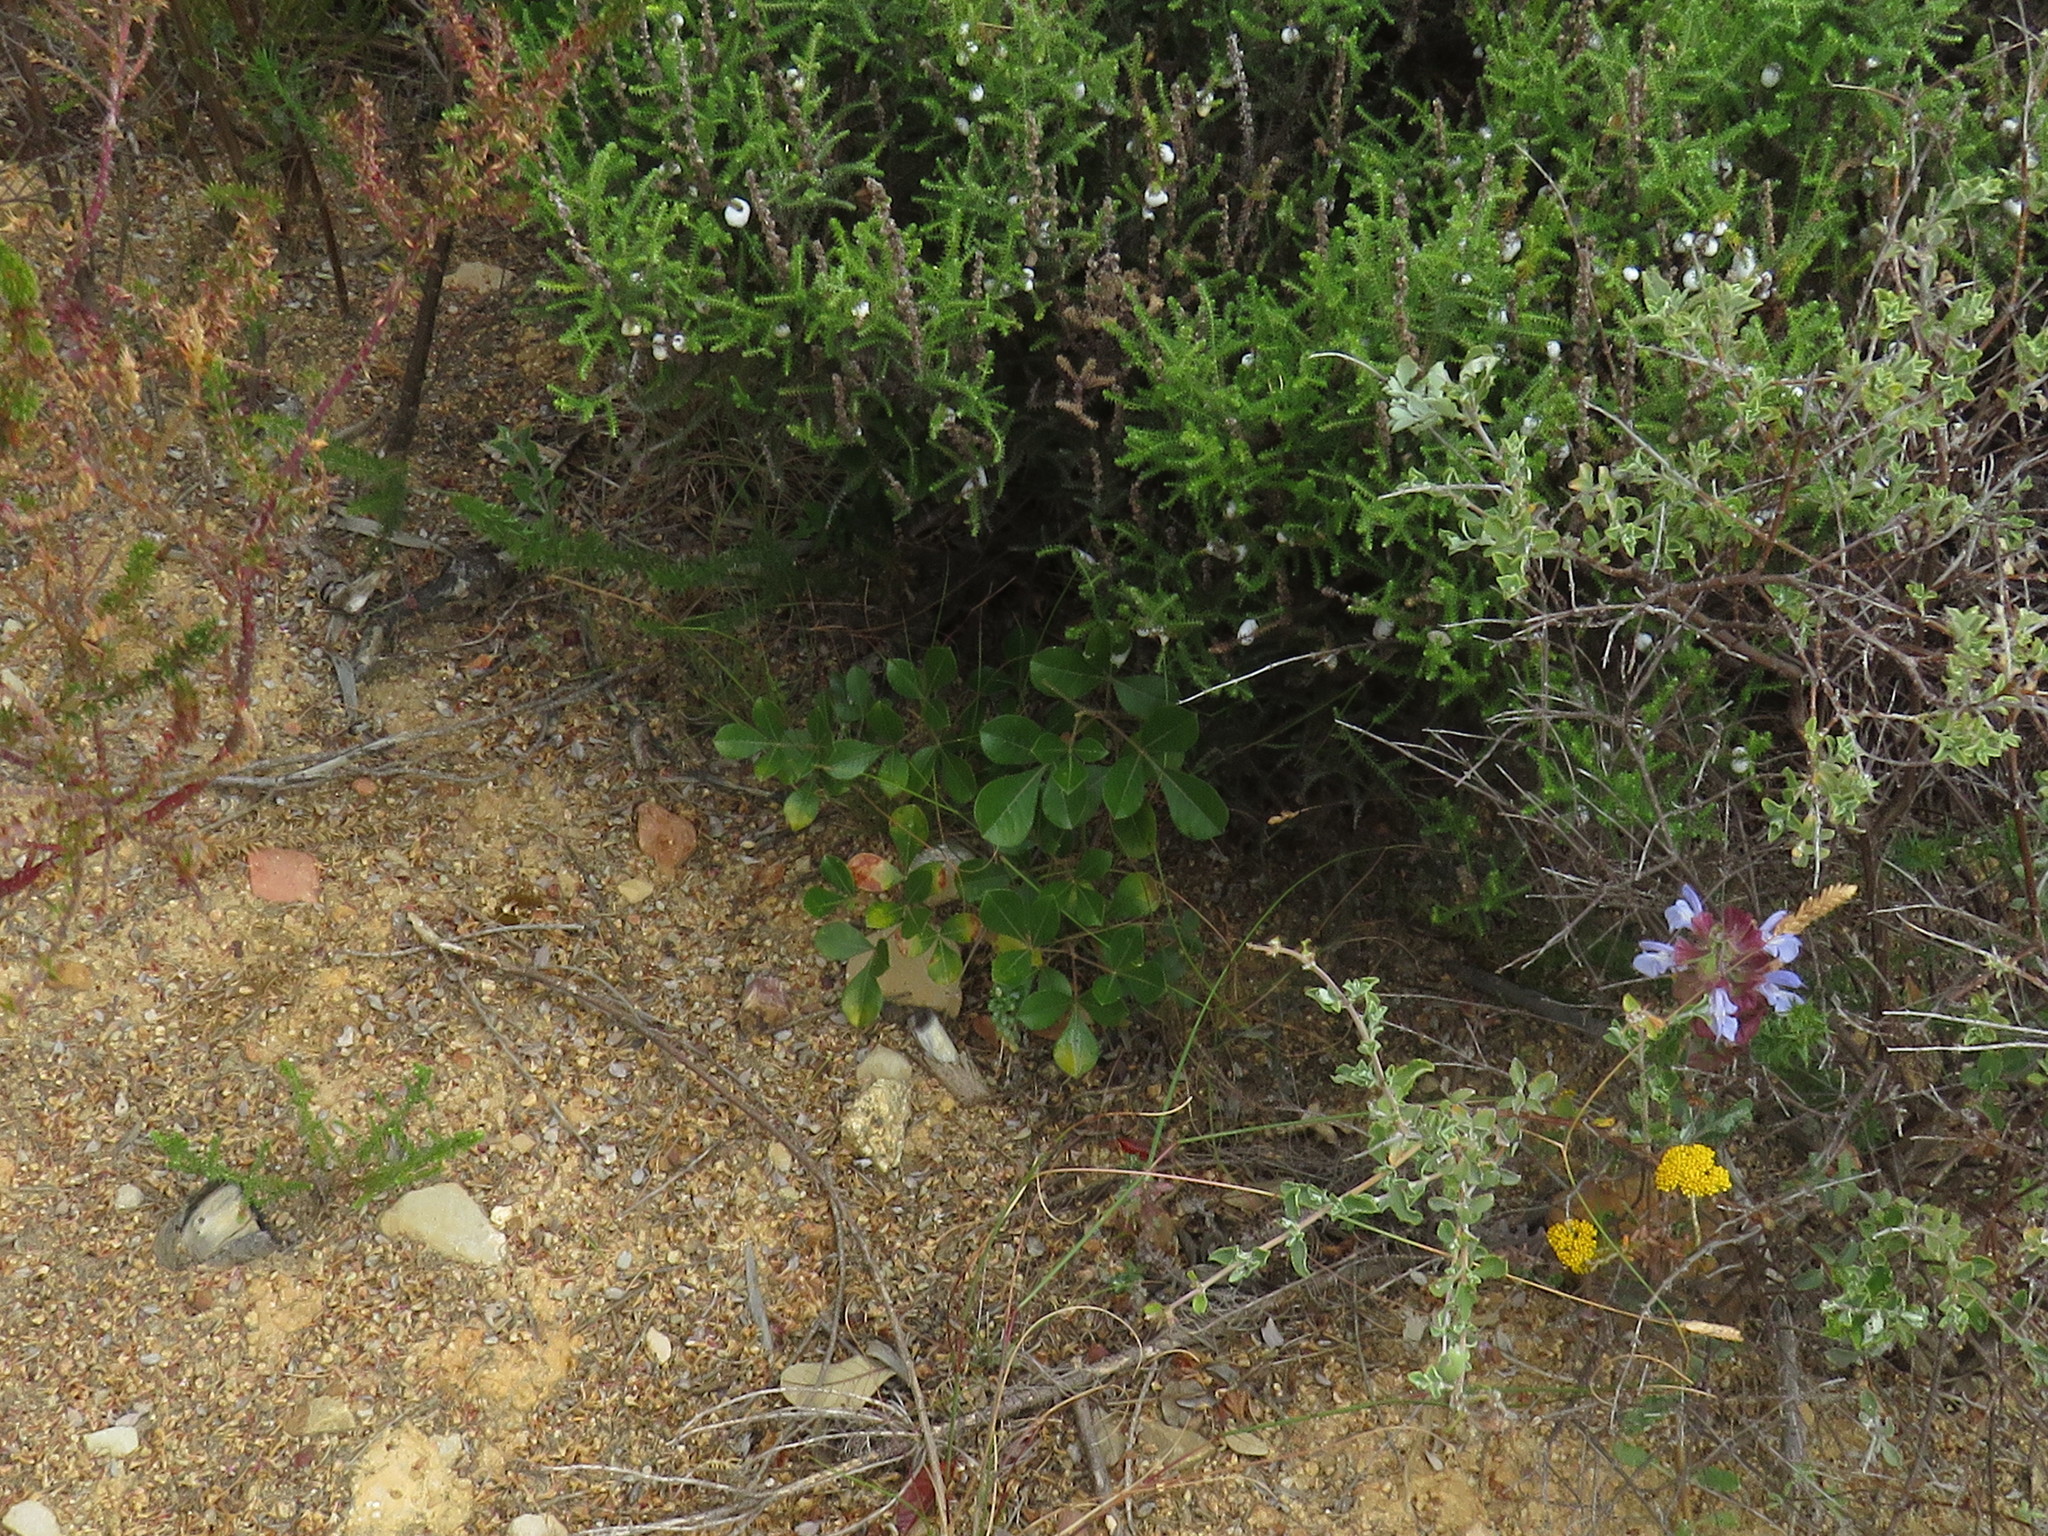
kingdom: Plantae
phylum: Tracheophyta
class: Magnoliopsida
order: Sapindales
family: Anacardiaceae
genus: Searsia
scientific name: Searsia laevigata
